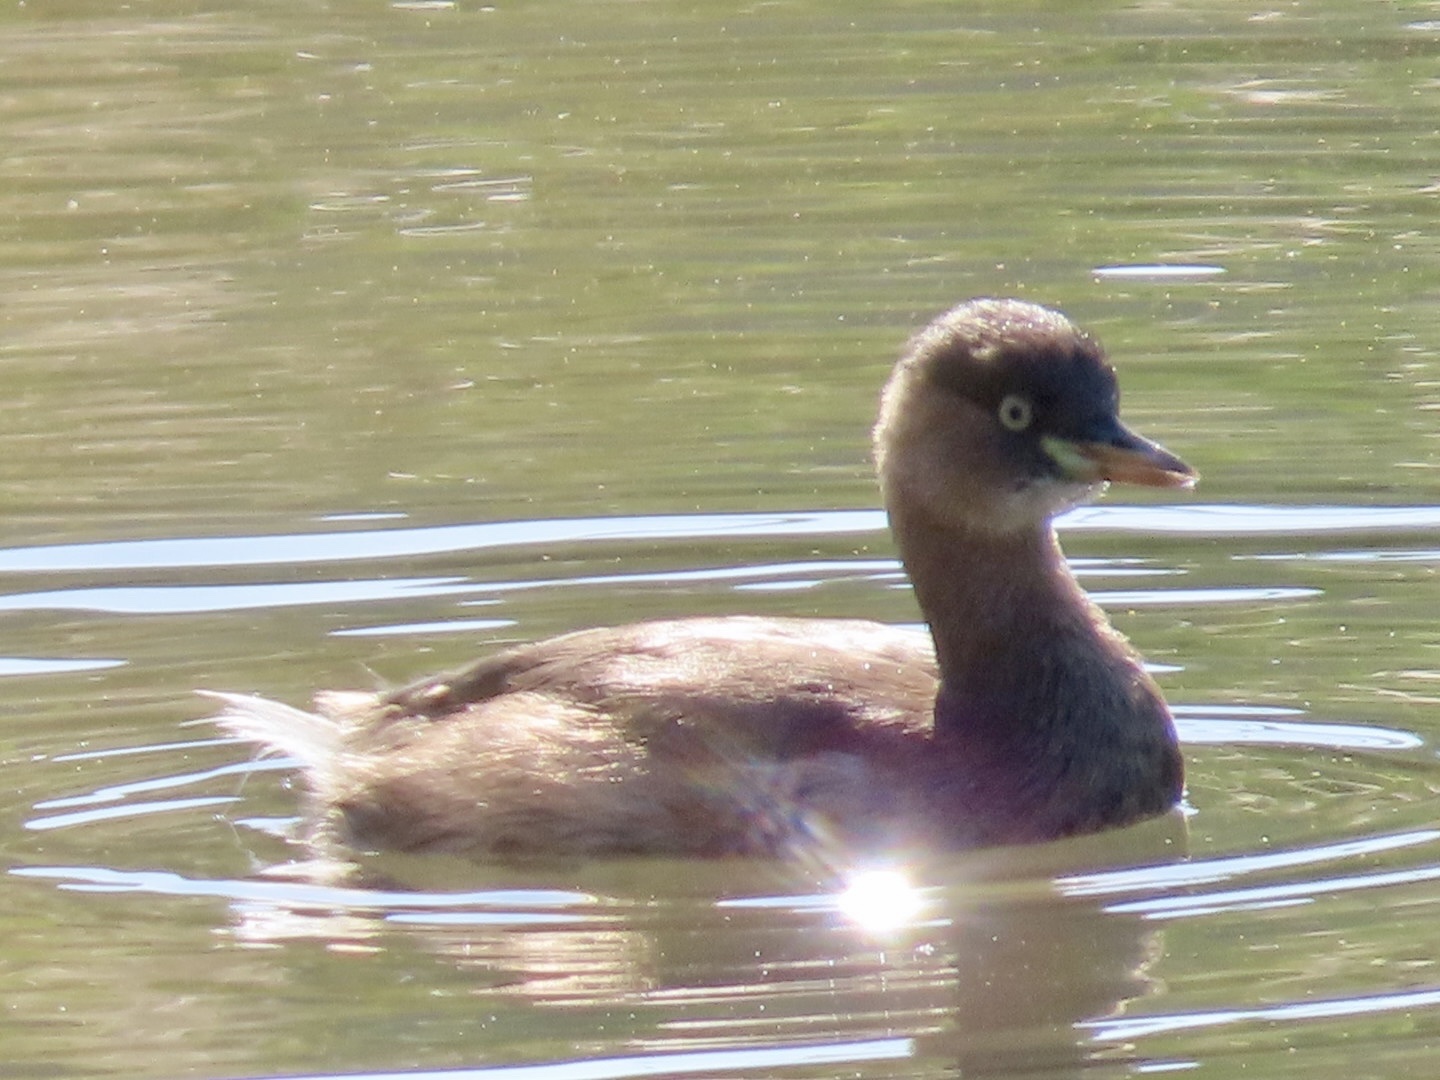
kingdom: Animalia
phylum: Chordata
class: Aves
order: Podicipediformes
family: Podicipedidae
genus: Tachybaptus
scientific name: Tachybaptus ruficollis
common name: Little grebe
